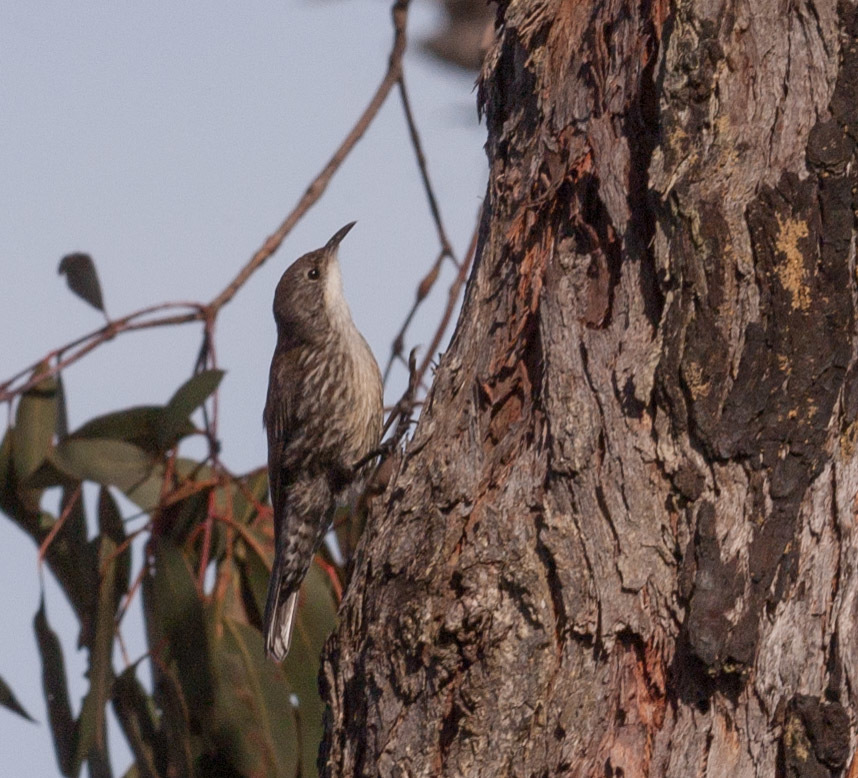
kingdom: Animalia
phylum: Chordata
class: Aves
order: Passeriformes
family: Climacteridae
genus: Cormobates
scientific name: Cormobates leucophaea
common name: White-throated treecreeper
